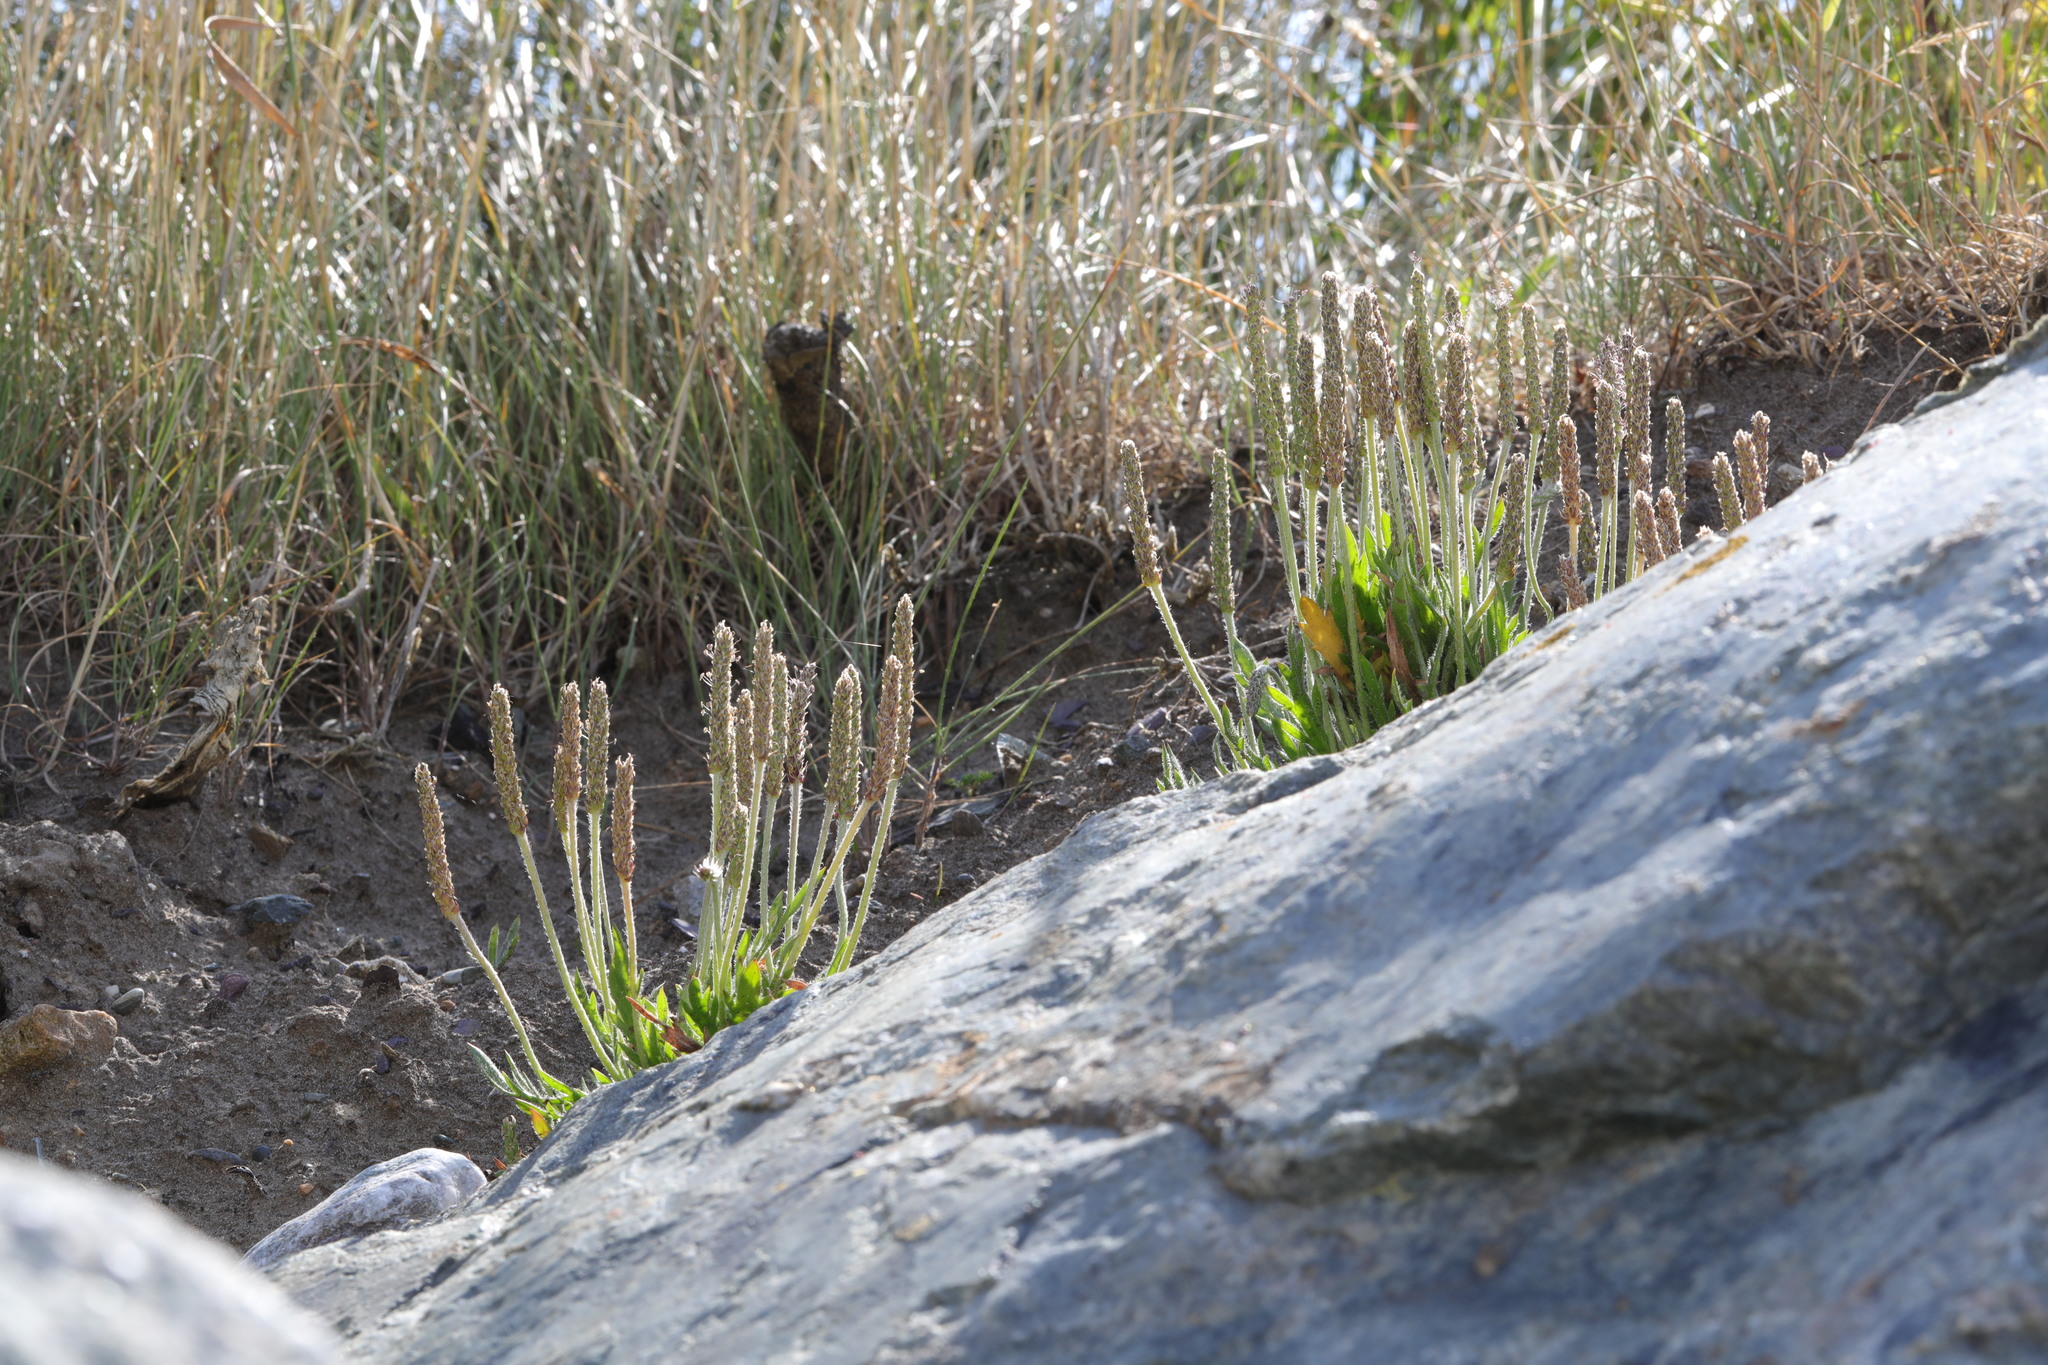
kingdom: Plantae
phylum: Tracheophyta
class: Magnoliopsida
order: Lamiales
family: Plantaginaceae
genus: Plantago
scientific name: Plantago coronopus
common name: Buck's-horn plantain
